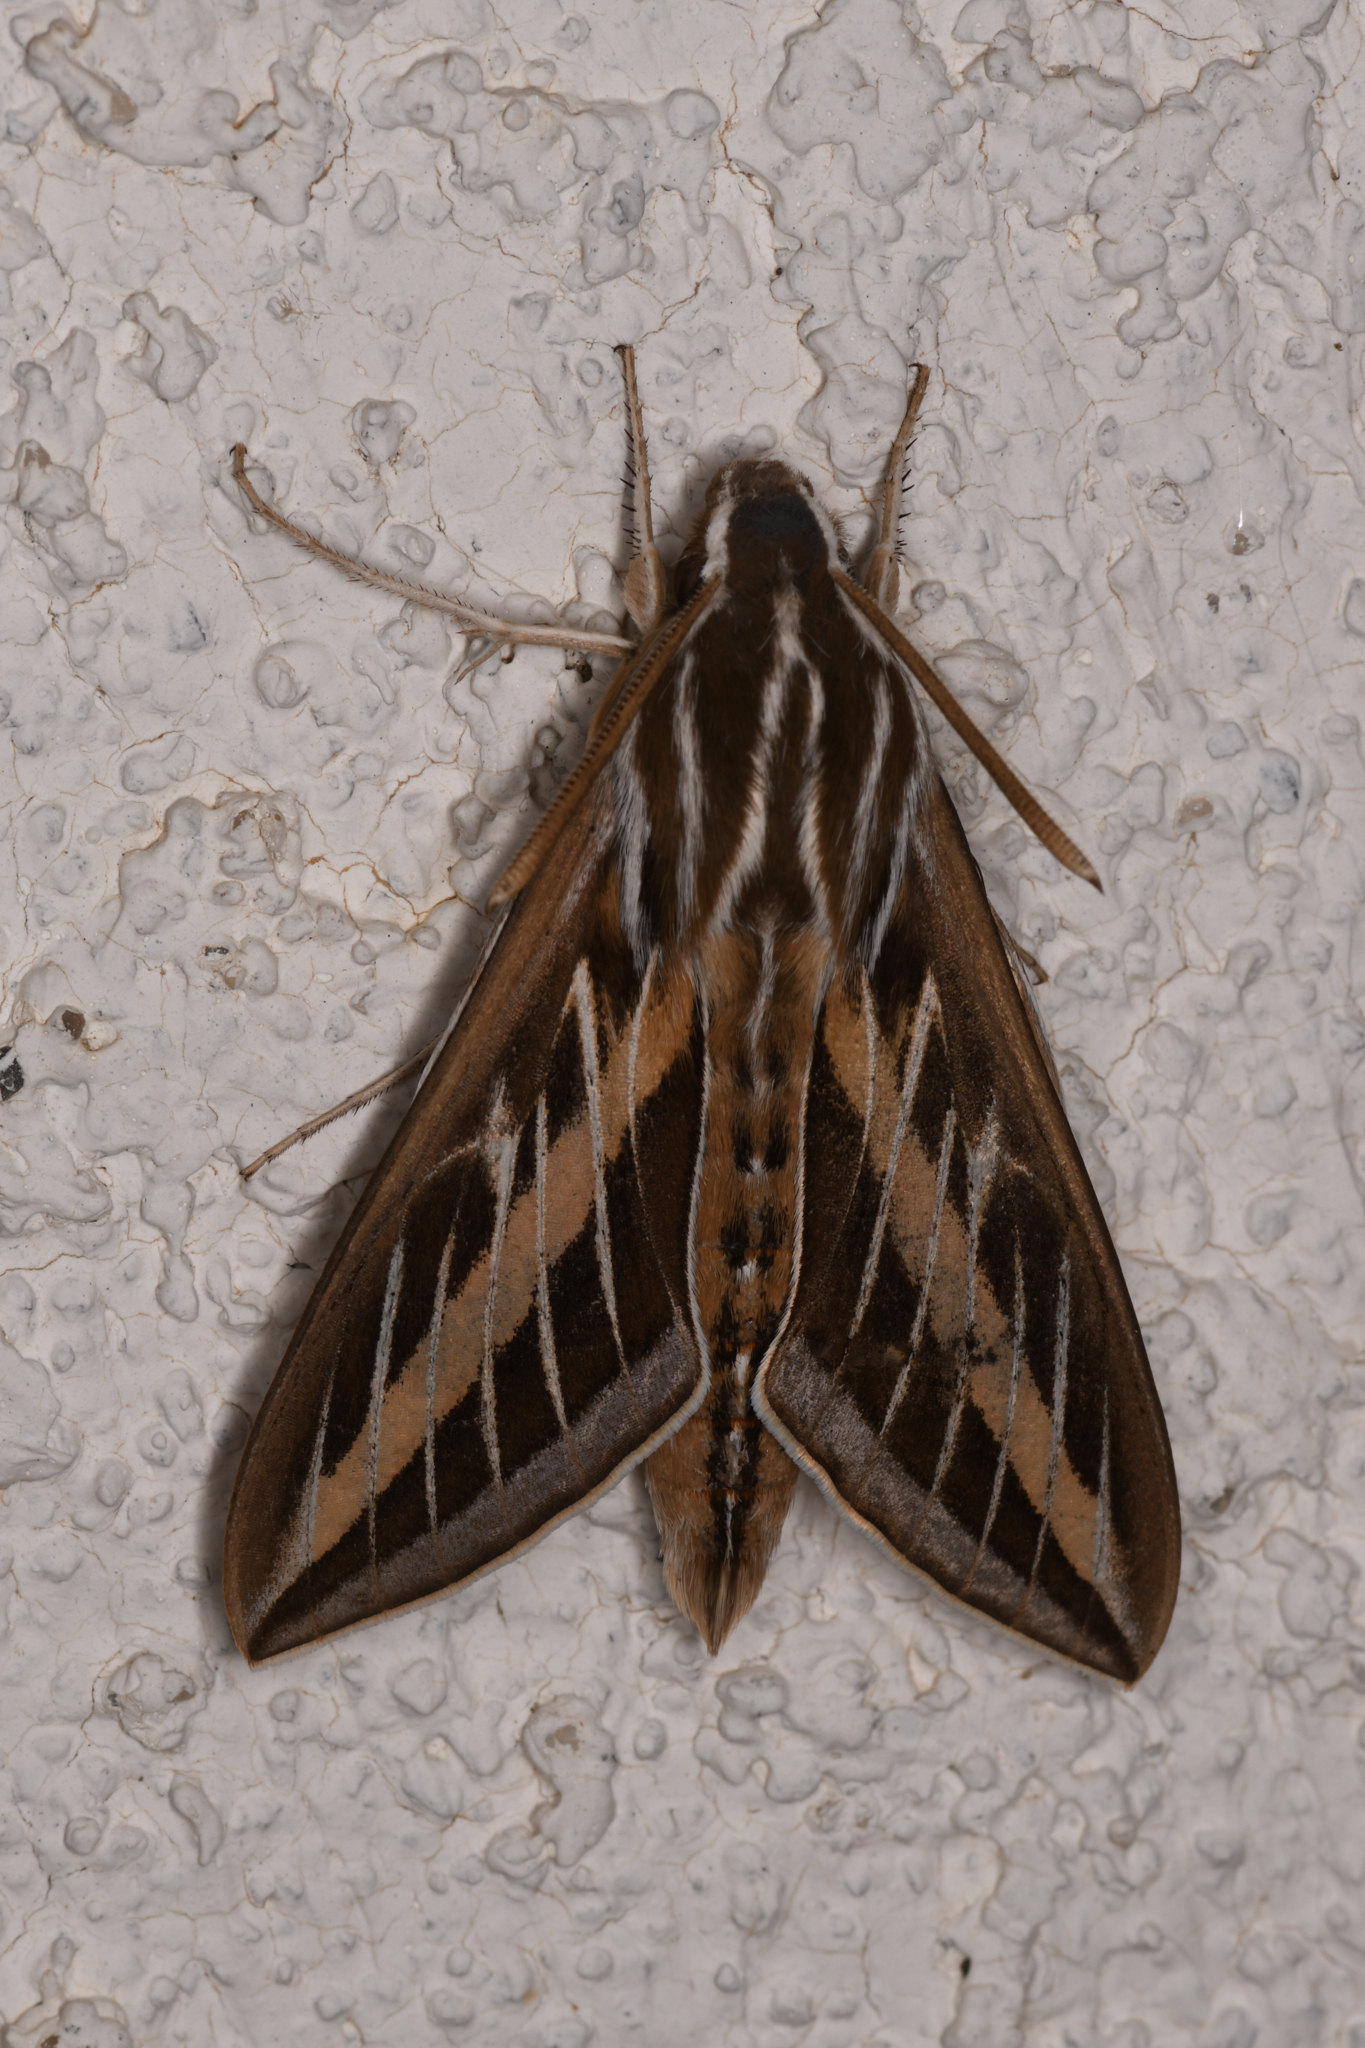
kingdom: Animalia
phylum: Arthropoda
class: Insecta
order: Lepidoptera
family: Sphingidae
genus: Hyles
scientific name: Hyles lineata
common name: White-lined sphinx
